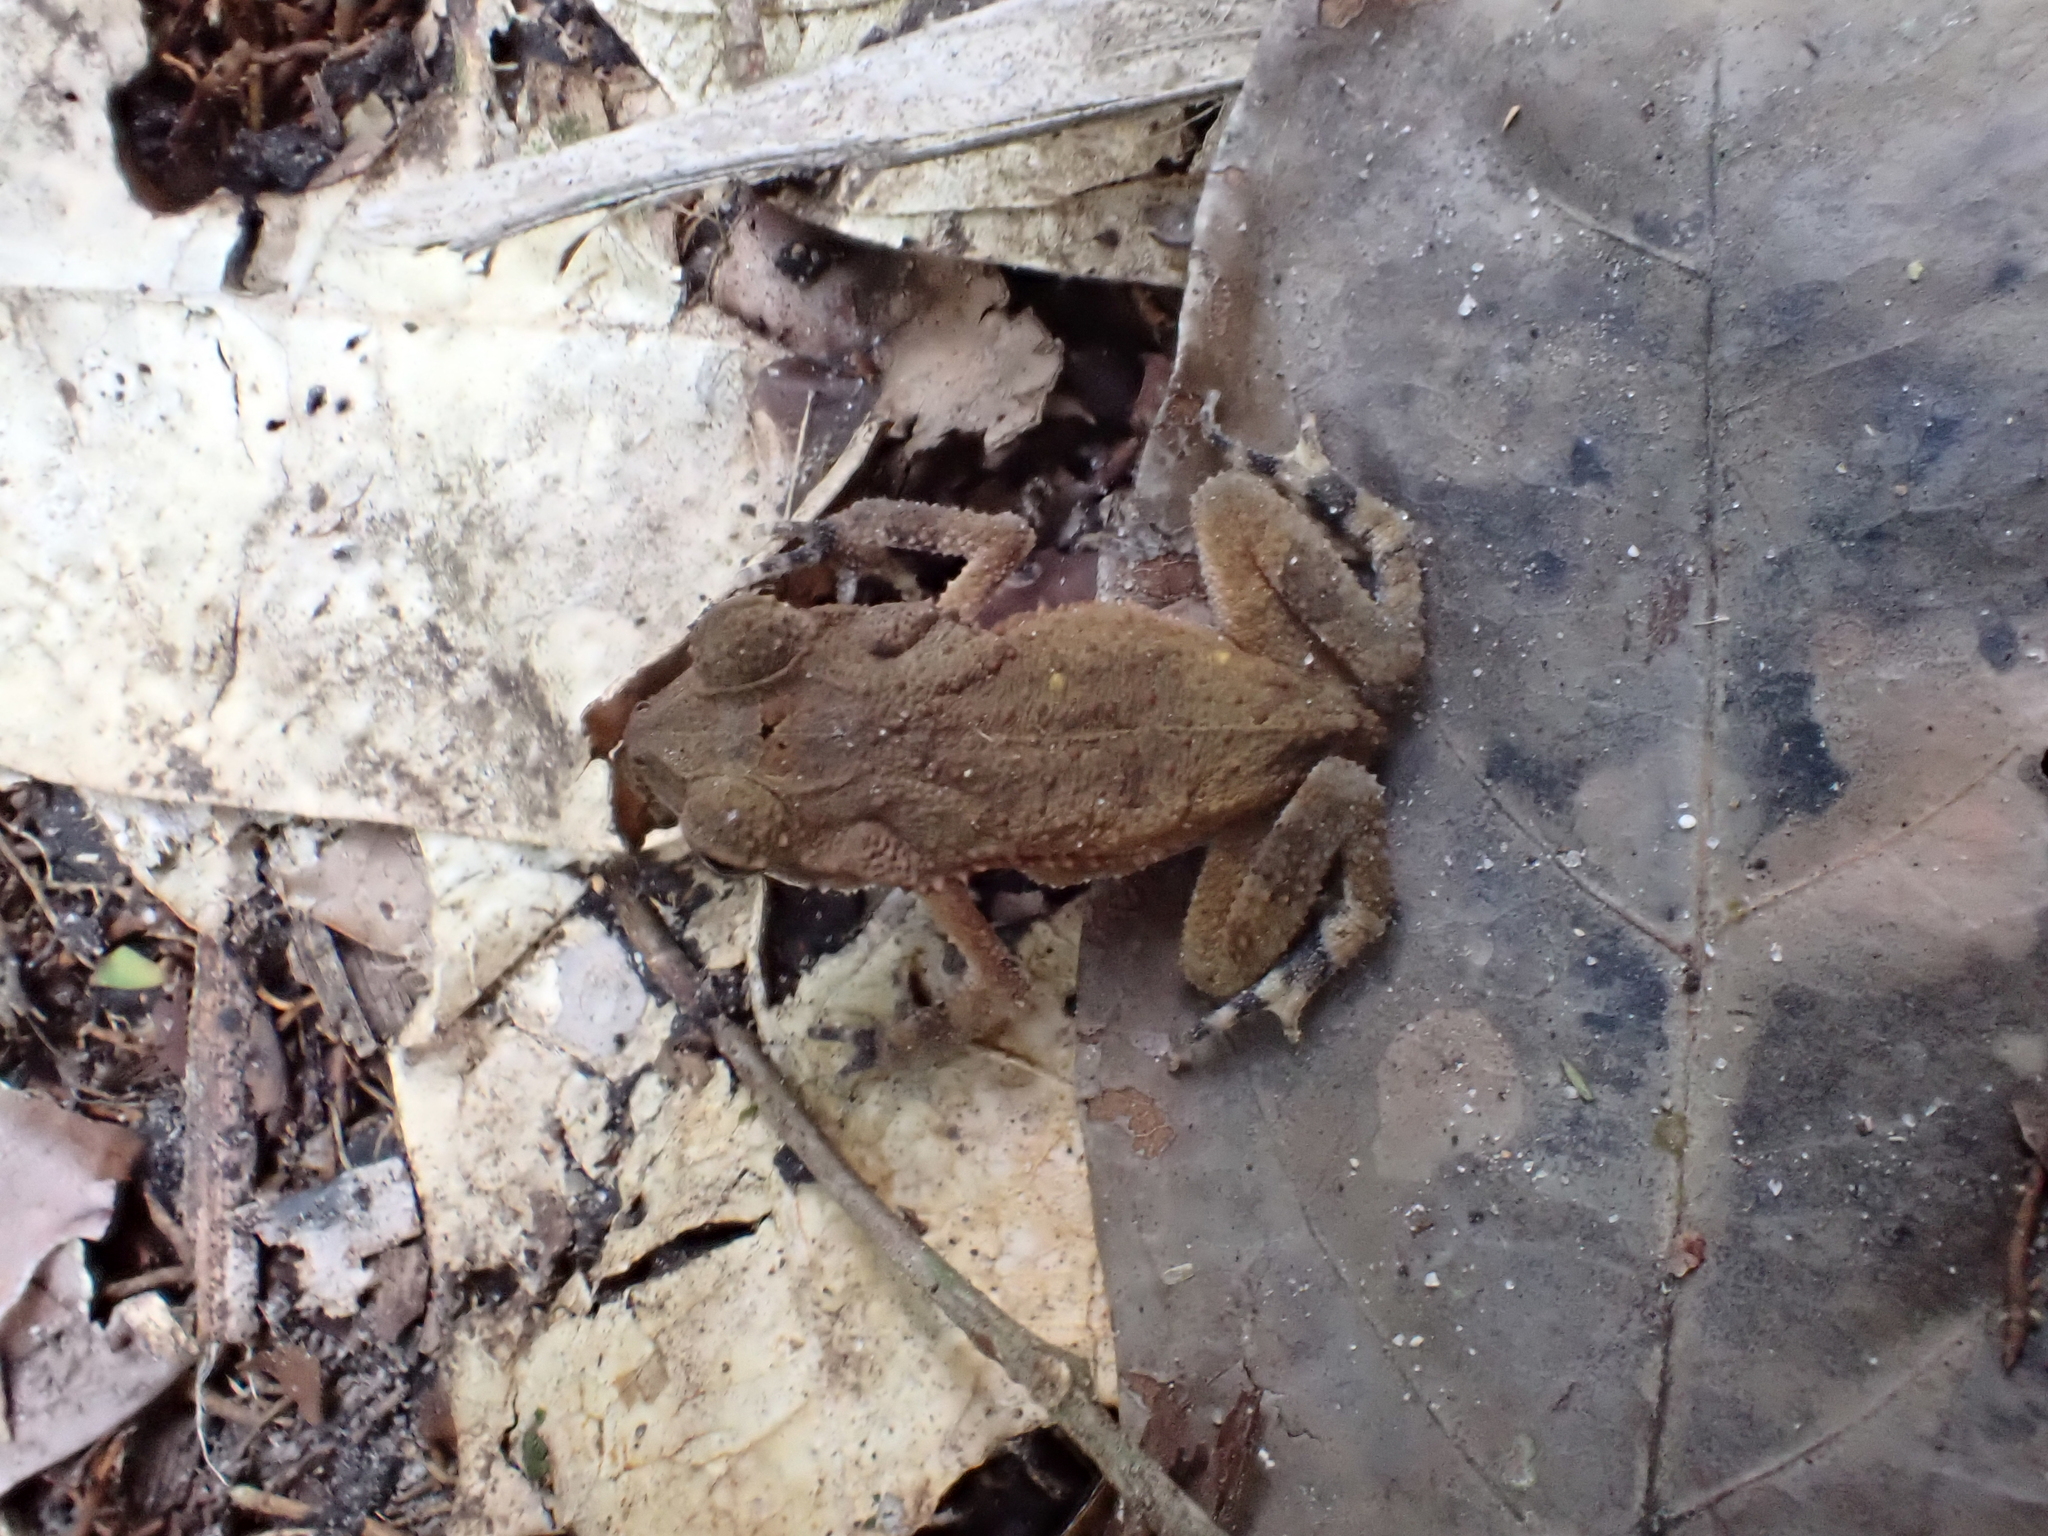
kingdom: Animalia
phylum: Chordata
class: Amphibia
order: Anura
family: Bufonidae
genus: Incilius
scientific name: Incilius valliceps
